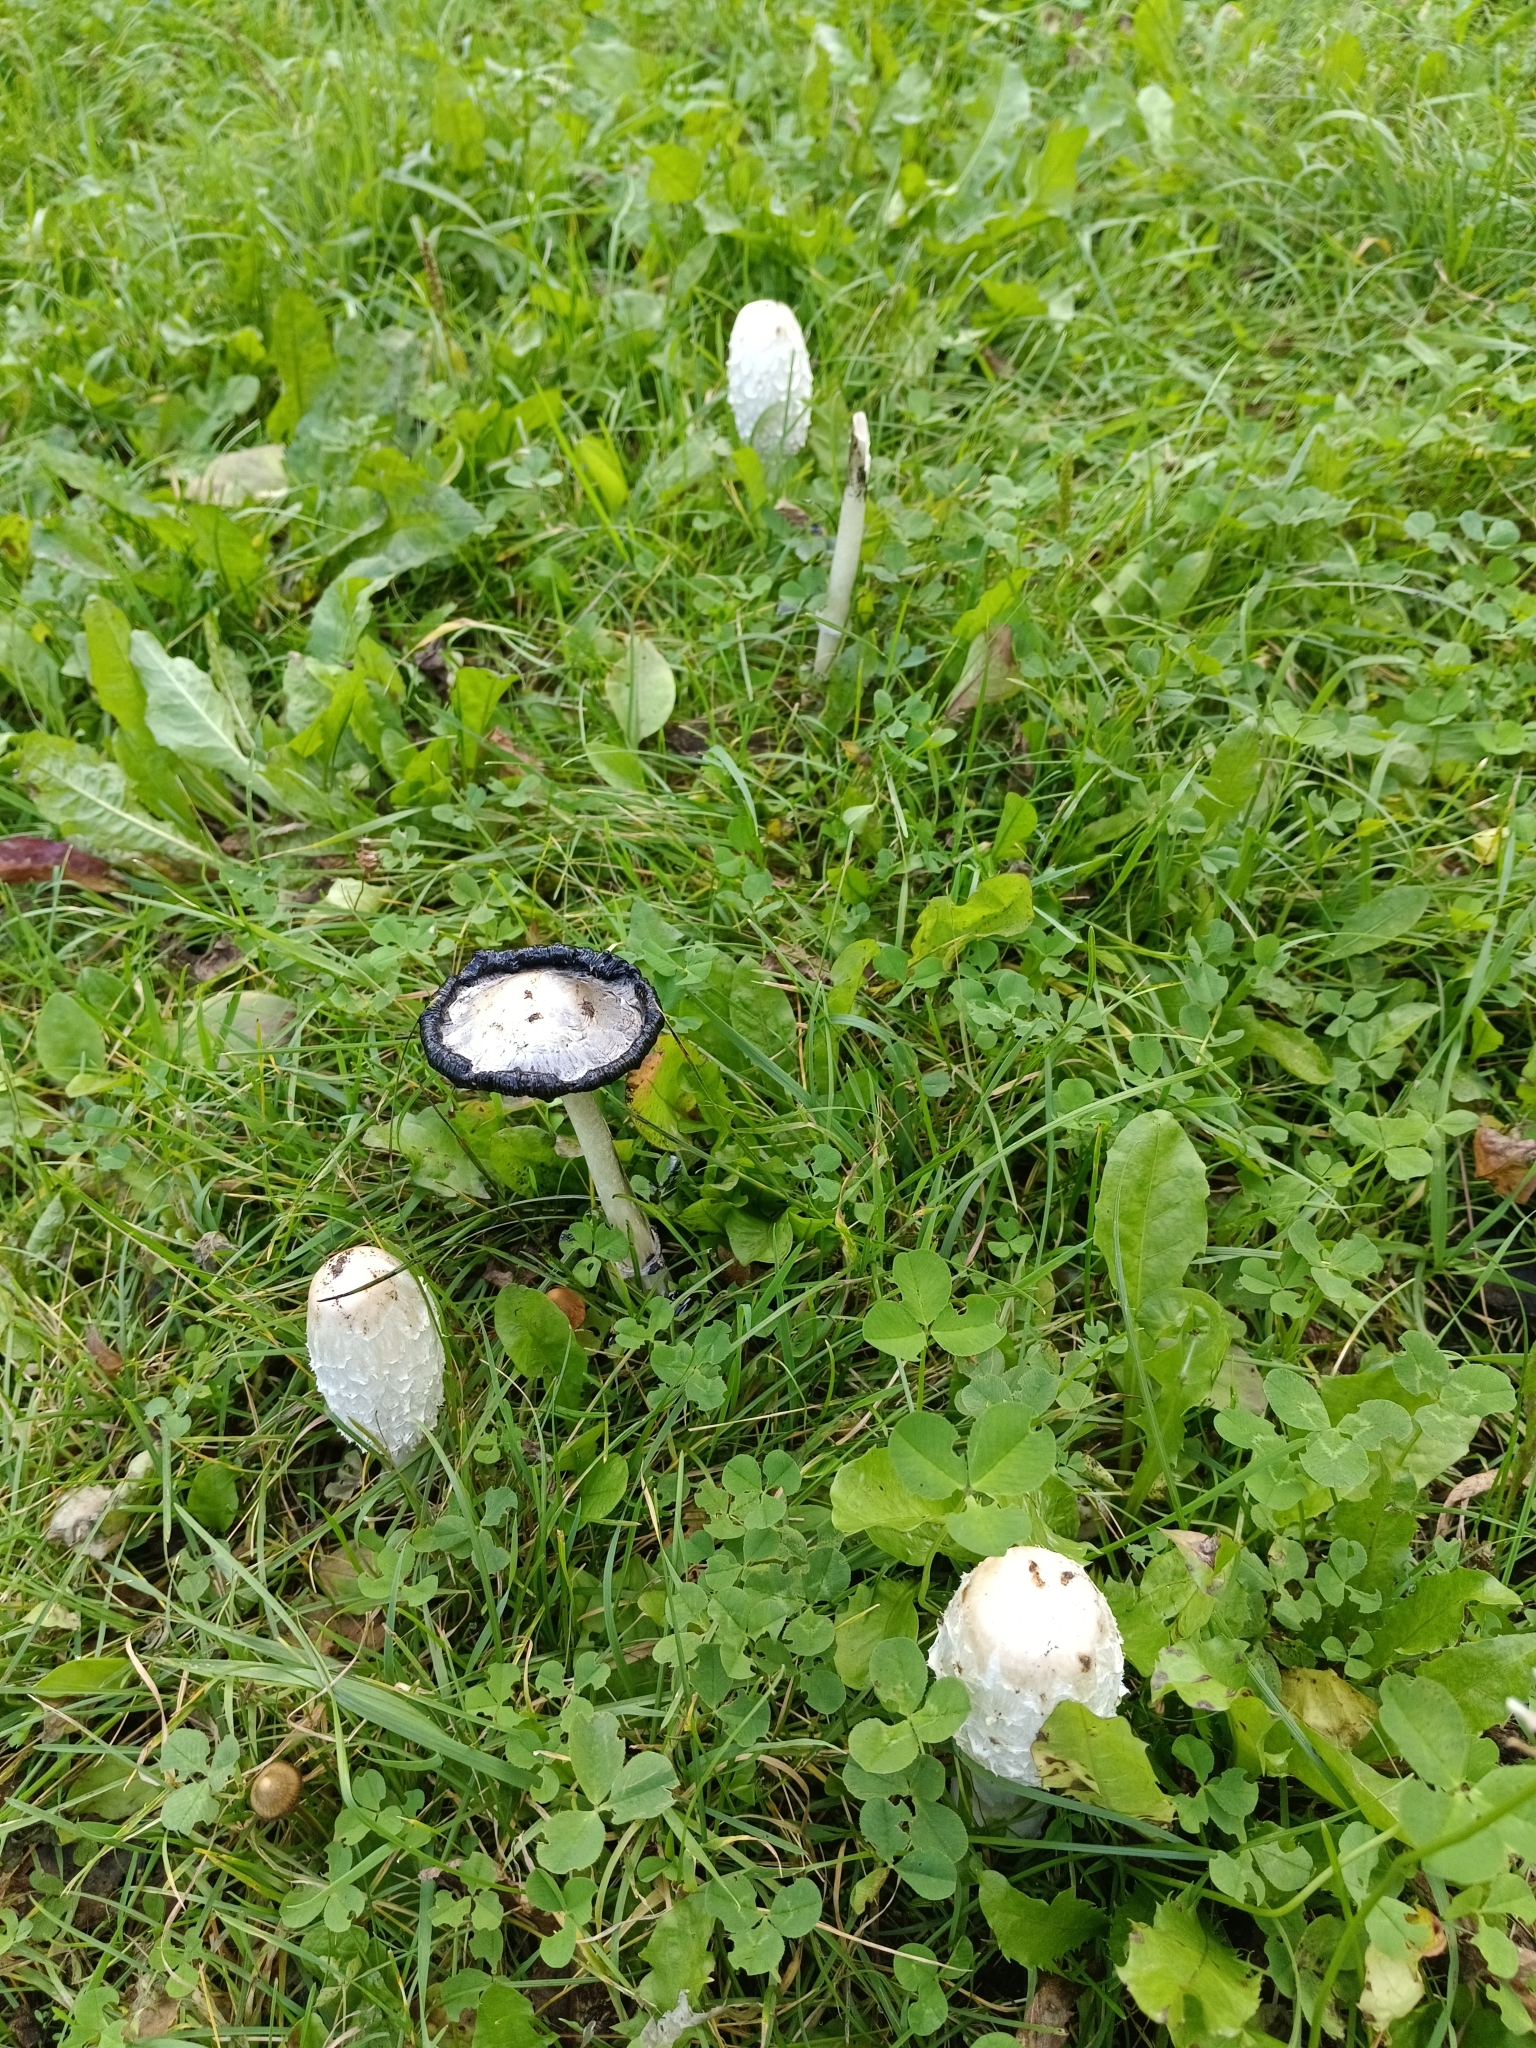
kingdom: Fungi
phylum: Basidiomycota
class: Agaricomycetes
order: Agaricales
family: Agaricaceae
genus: Coprinus
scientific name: Coprinus comatus
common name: Lawyer's wig
